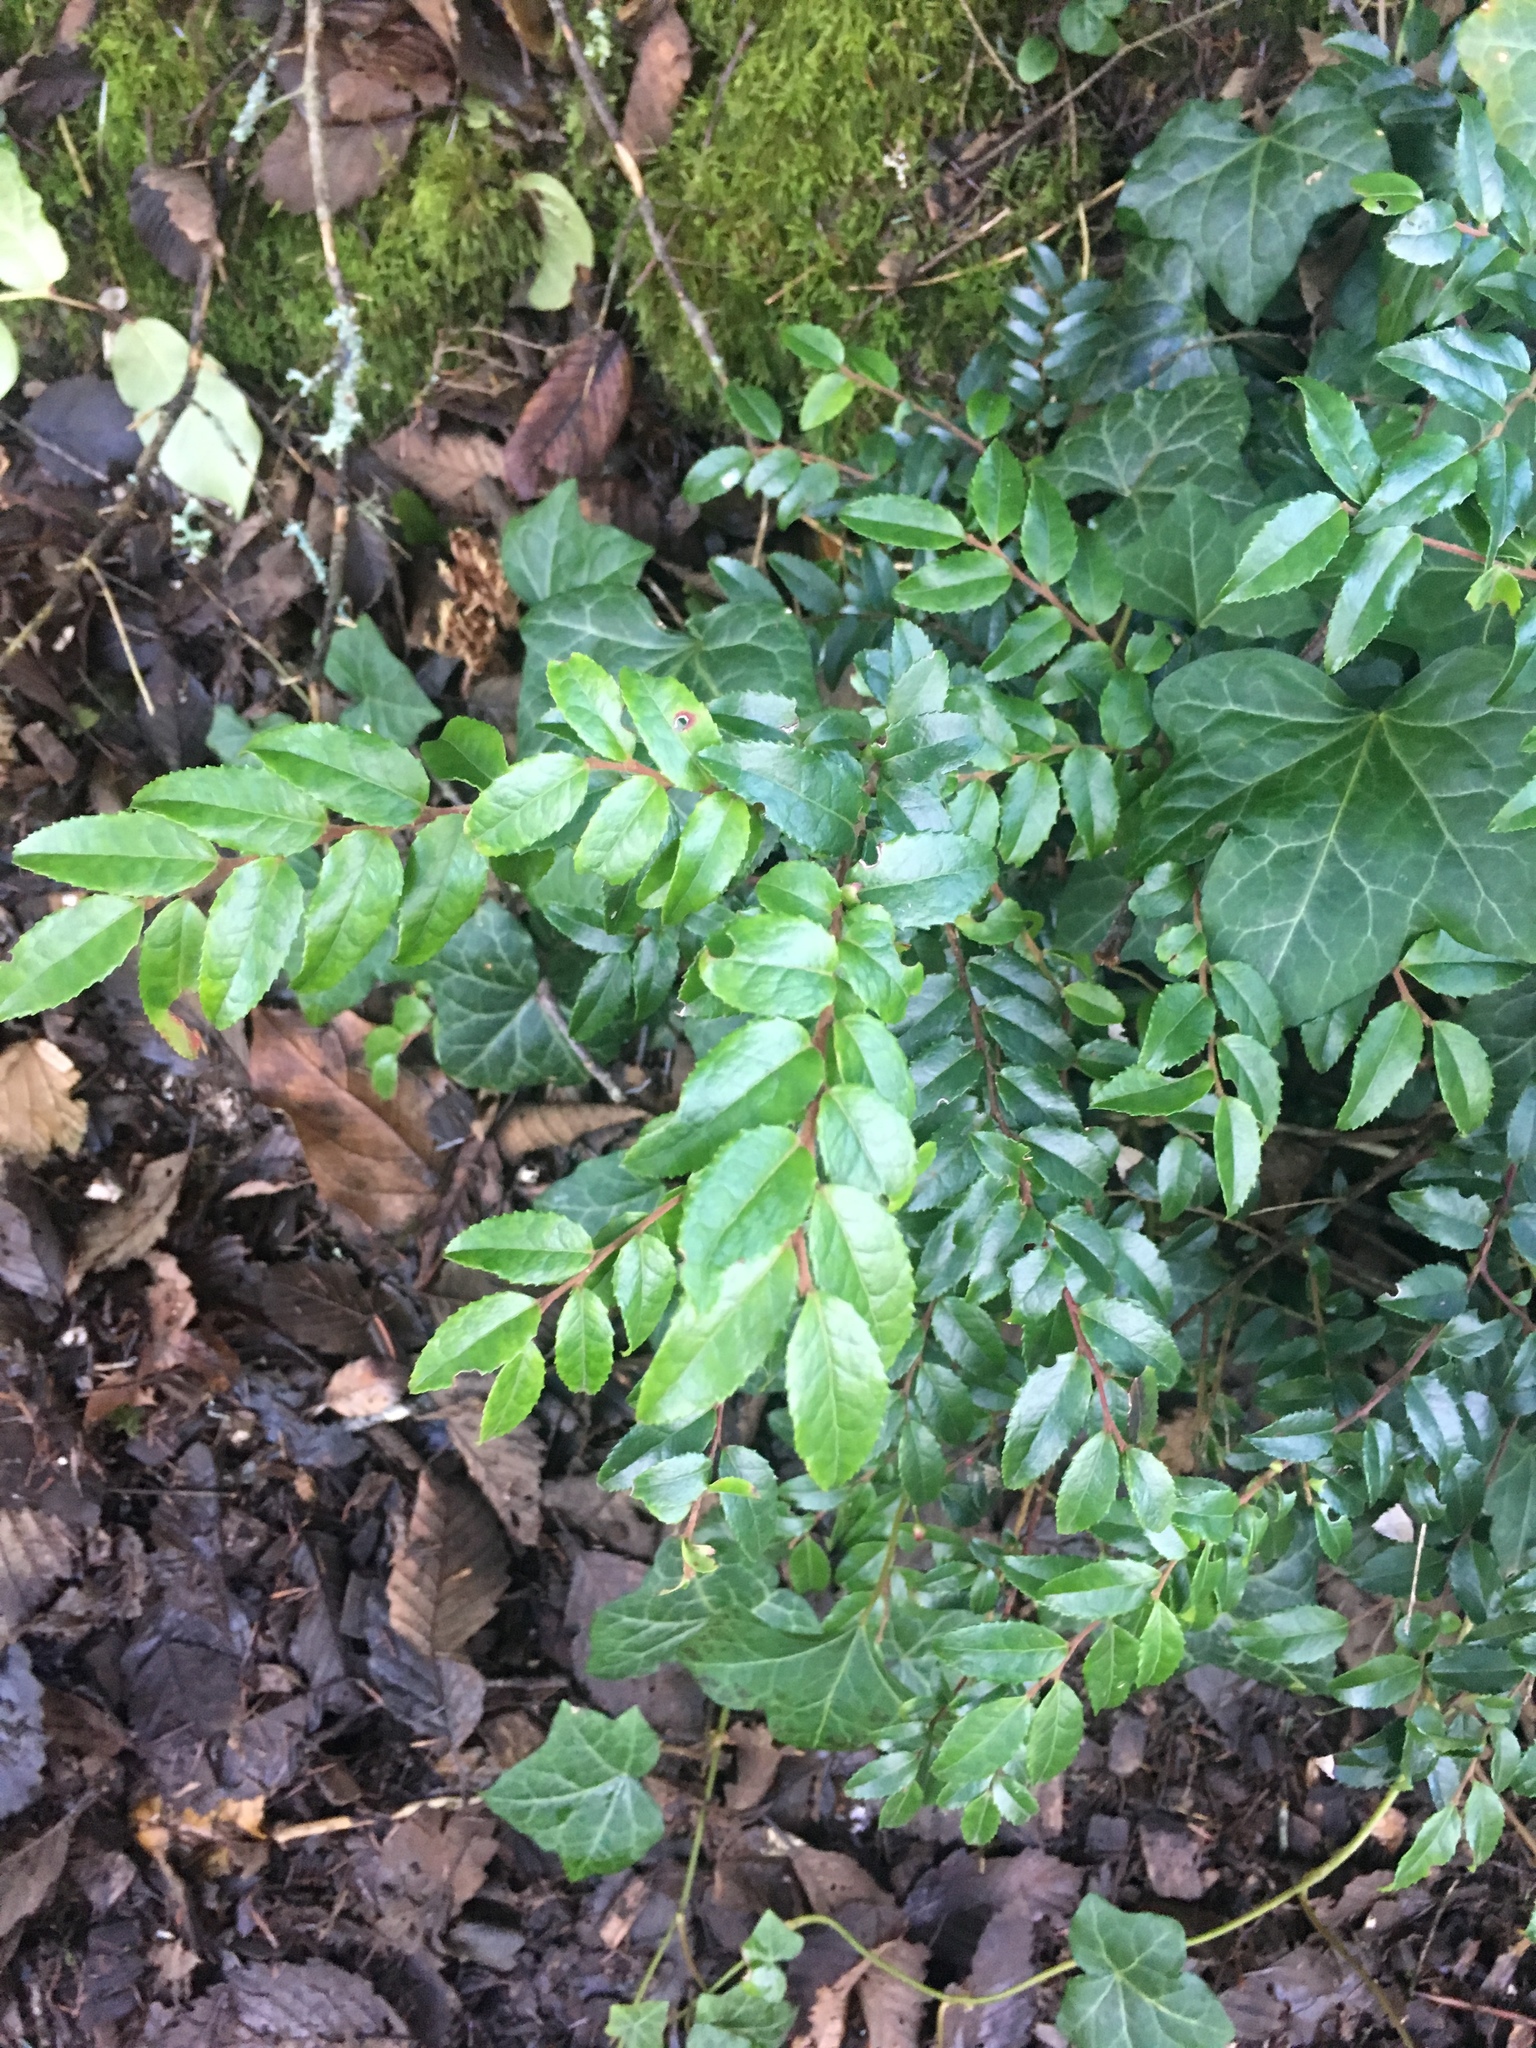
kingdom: Plantae
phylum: Tracheophyta
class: Magnoliopsida
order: Ericales
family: Ericaceae
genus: Vaccinium
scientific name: Vaccinium ovatum
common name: California-huckleberry
